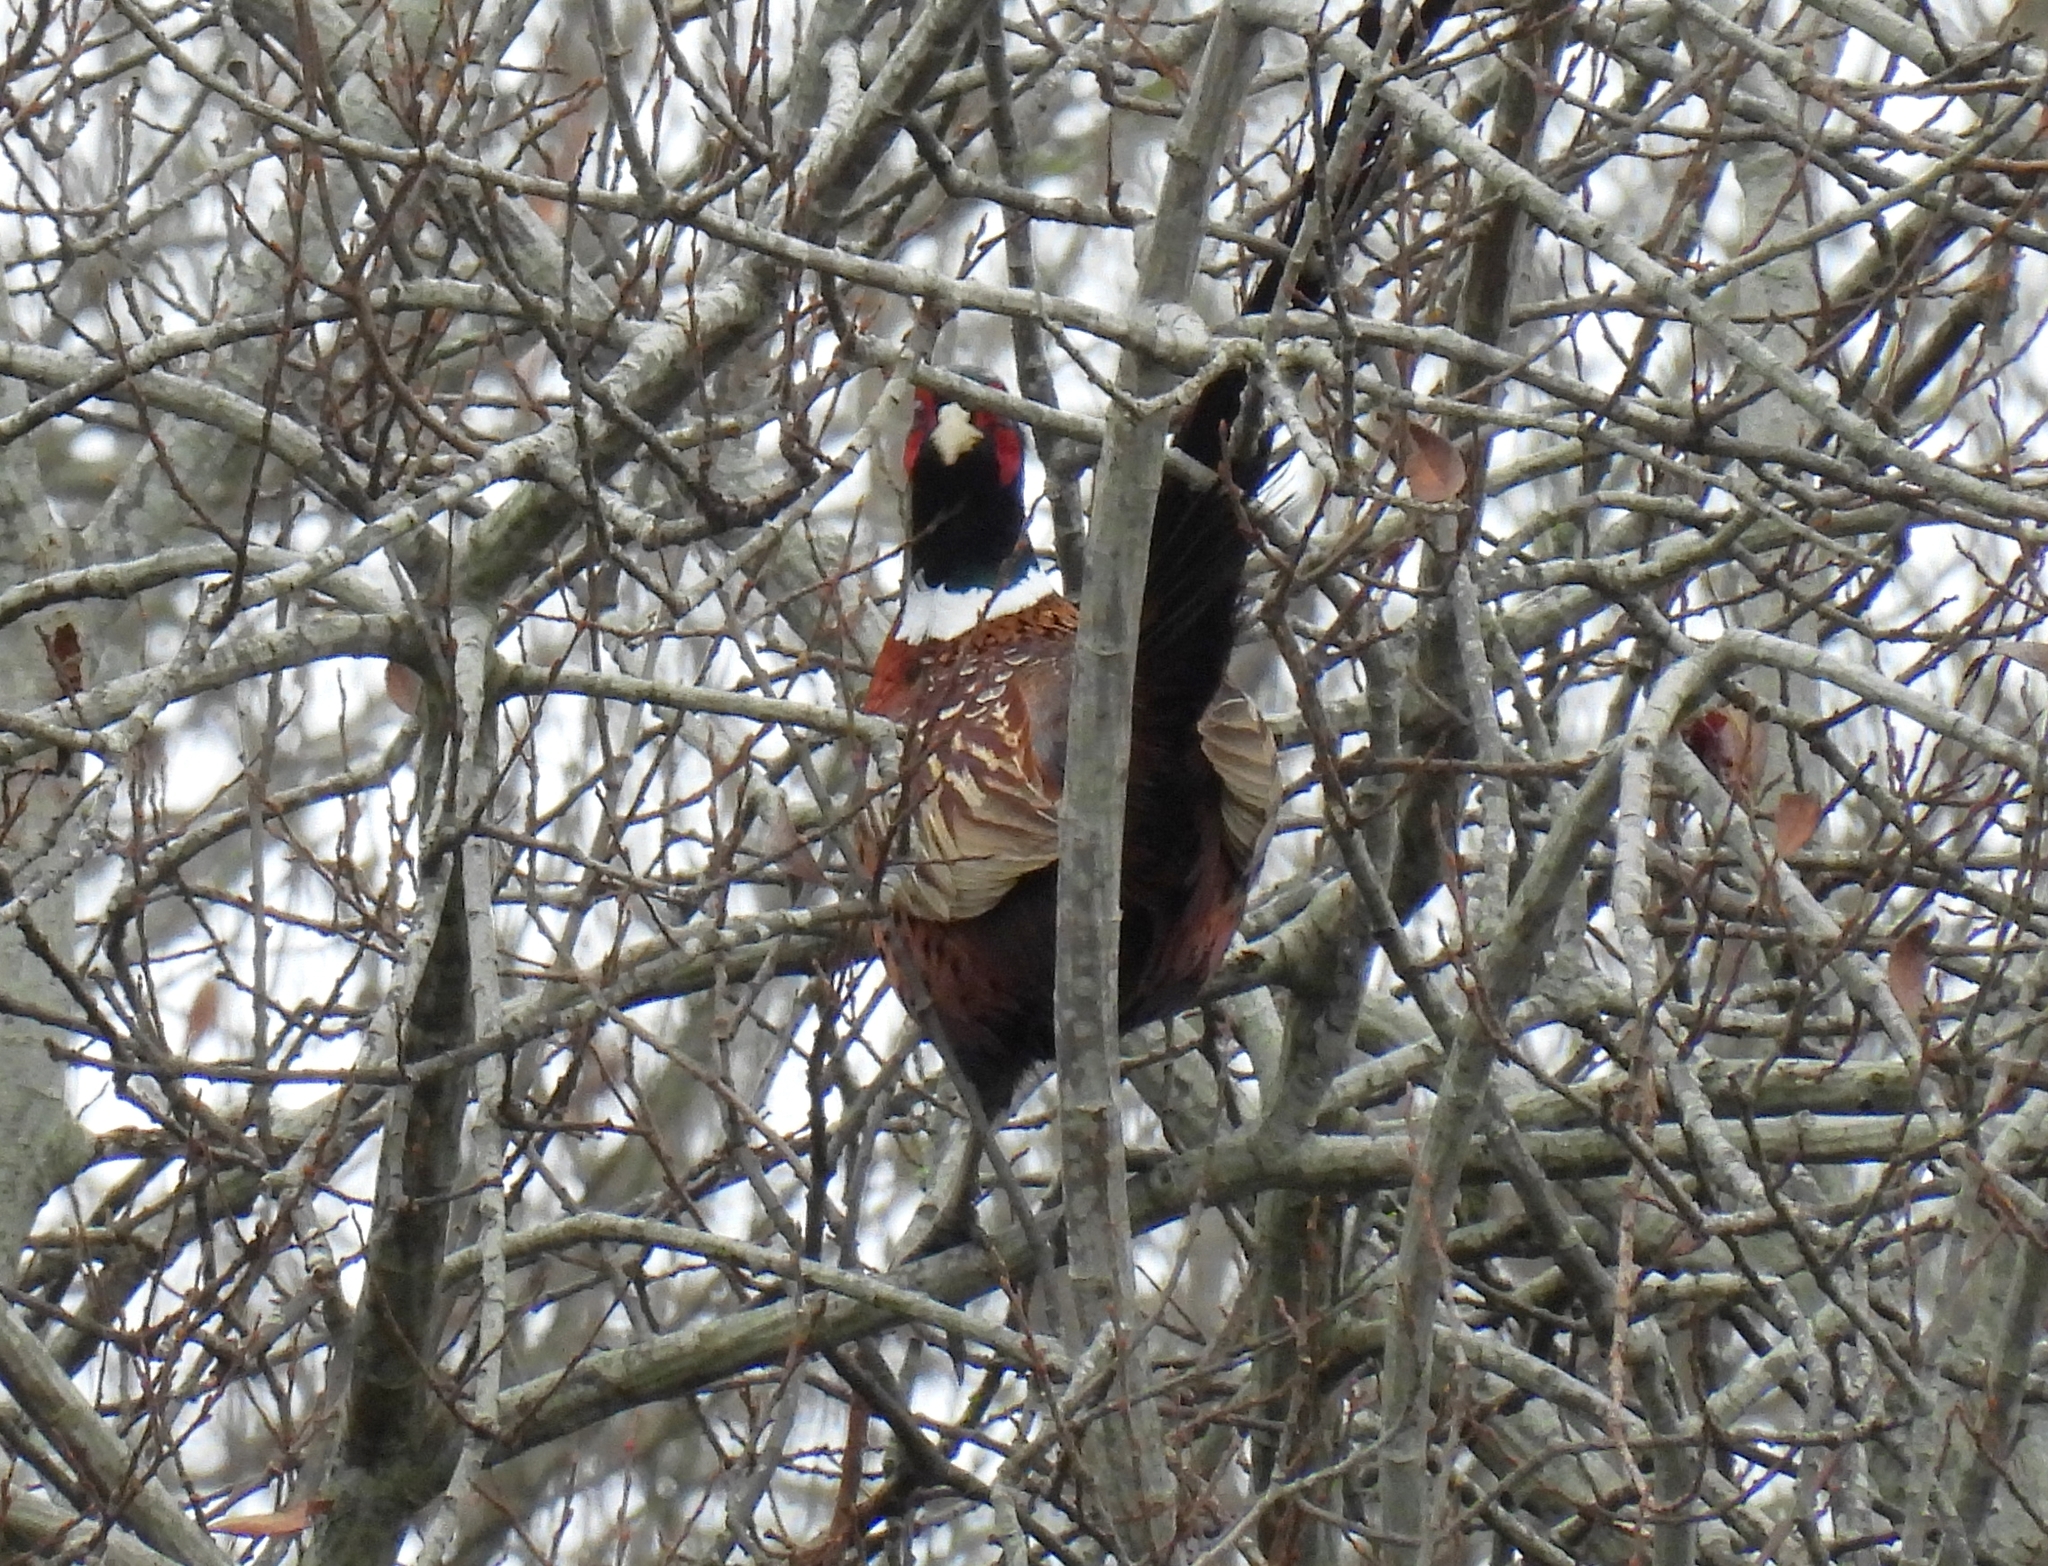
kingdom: Animalia
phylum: Chordata
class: Aves
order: Galliformes
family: Phasianidae
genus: Phasianus
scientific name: Phasianus colchicus
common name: Common pheasant
